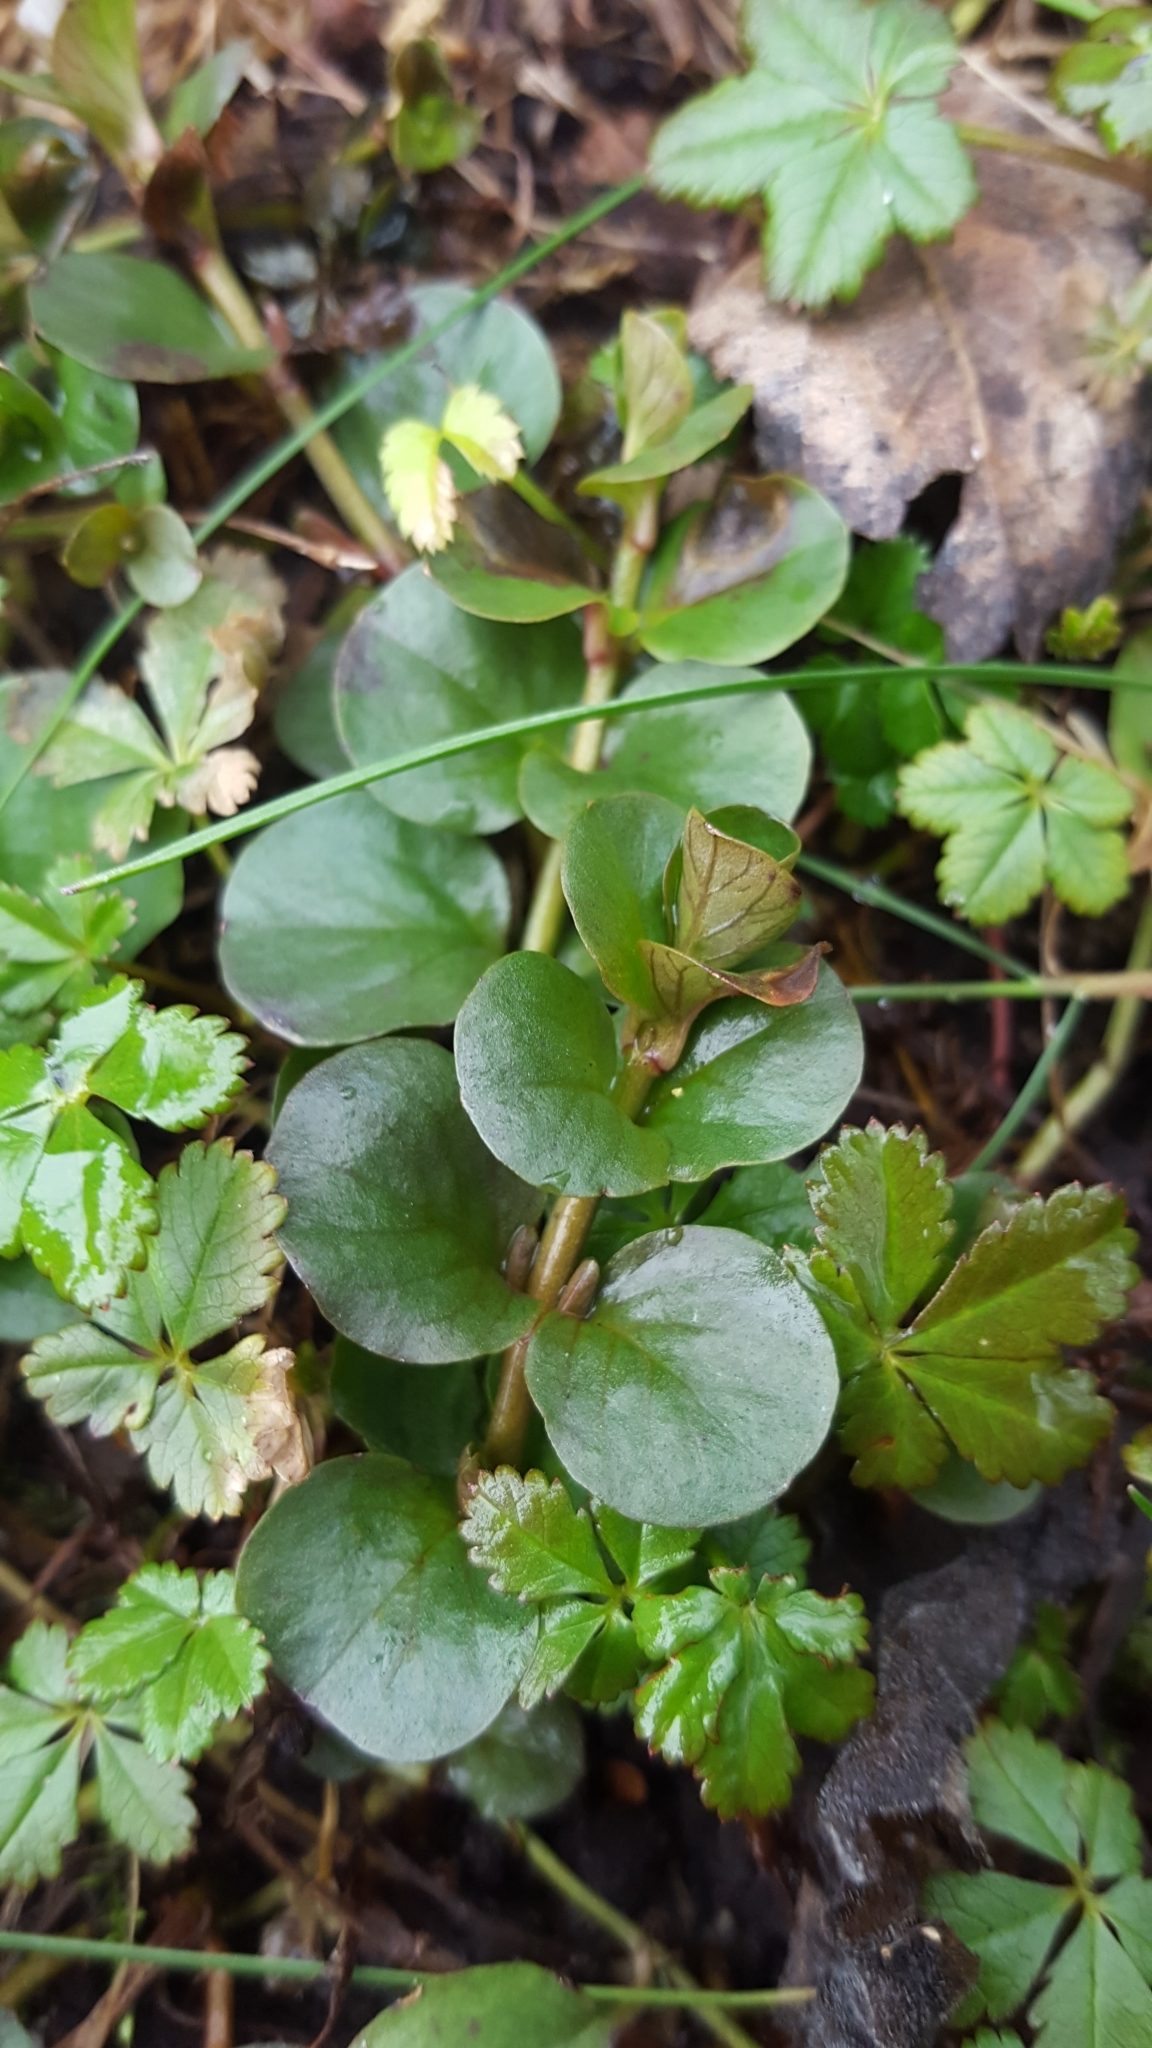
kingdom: Plantae
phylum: Tracheophyta
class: Magnoliopsida
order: Ericales
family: Primulaceae
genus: Lysimachia
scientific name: Lysimachia nummularia
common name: Moneywort
